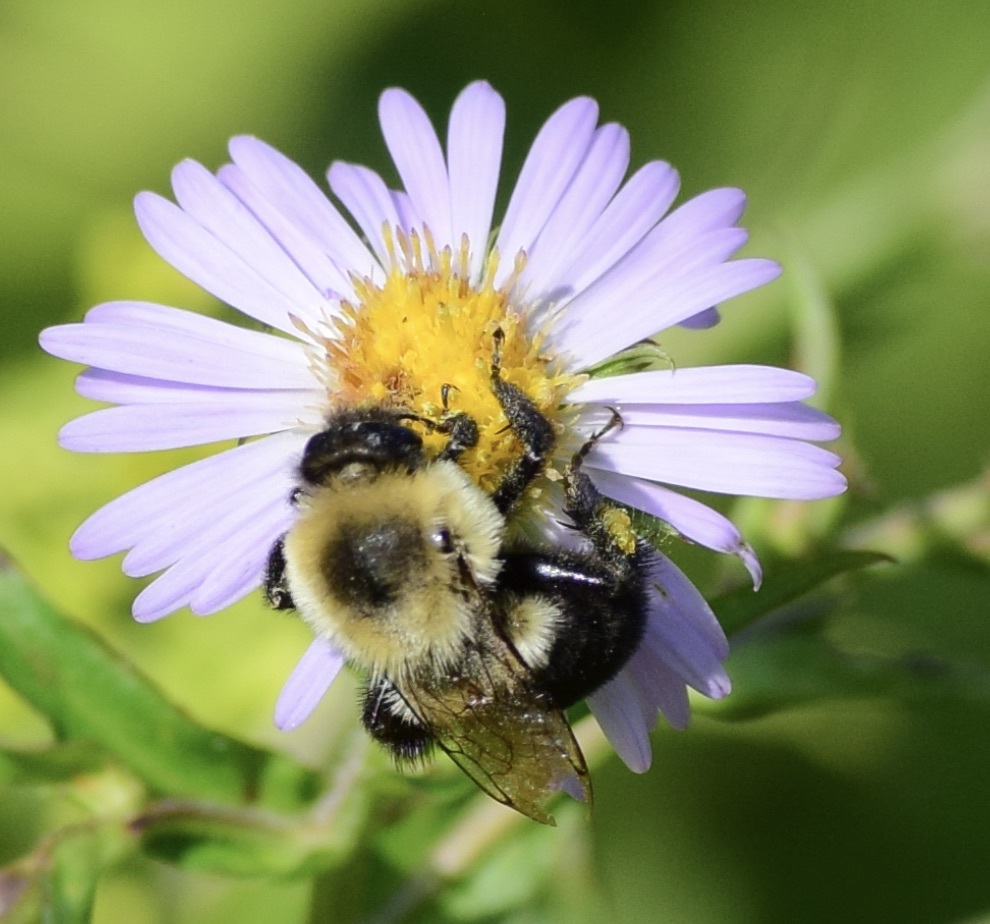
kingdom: Animalia
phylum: Arthropoda
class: Insecta
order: Hymenoptera
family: Apidae
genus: Bombus
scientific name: Bombus impatiens
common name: Common eastern bumble bee
